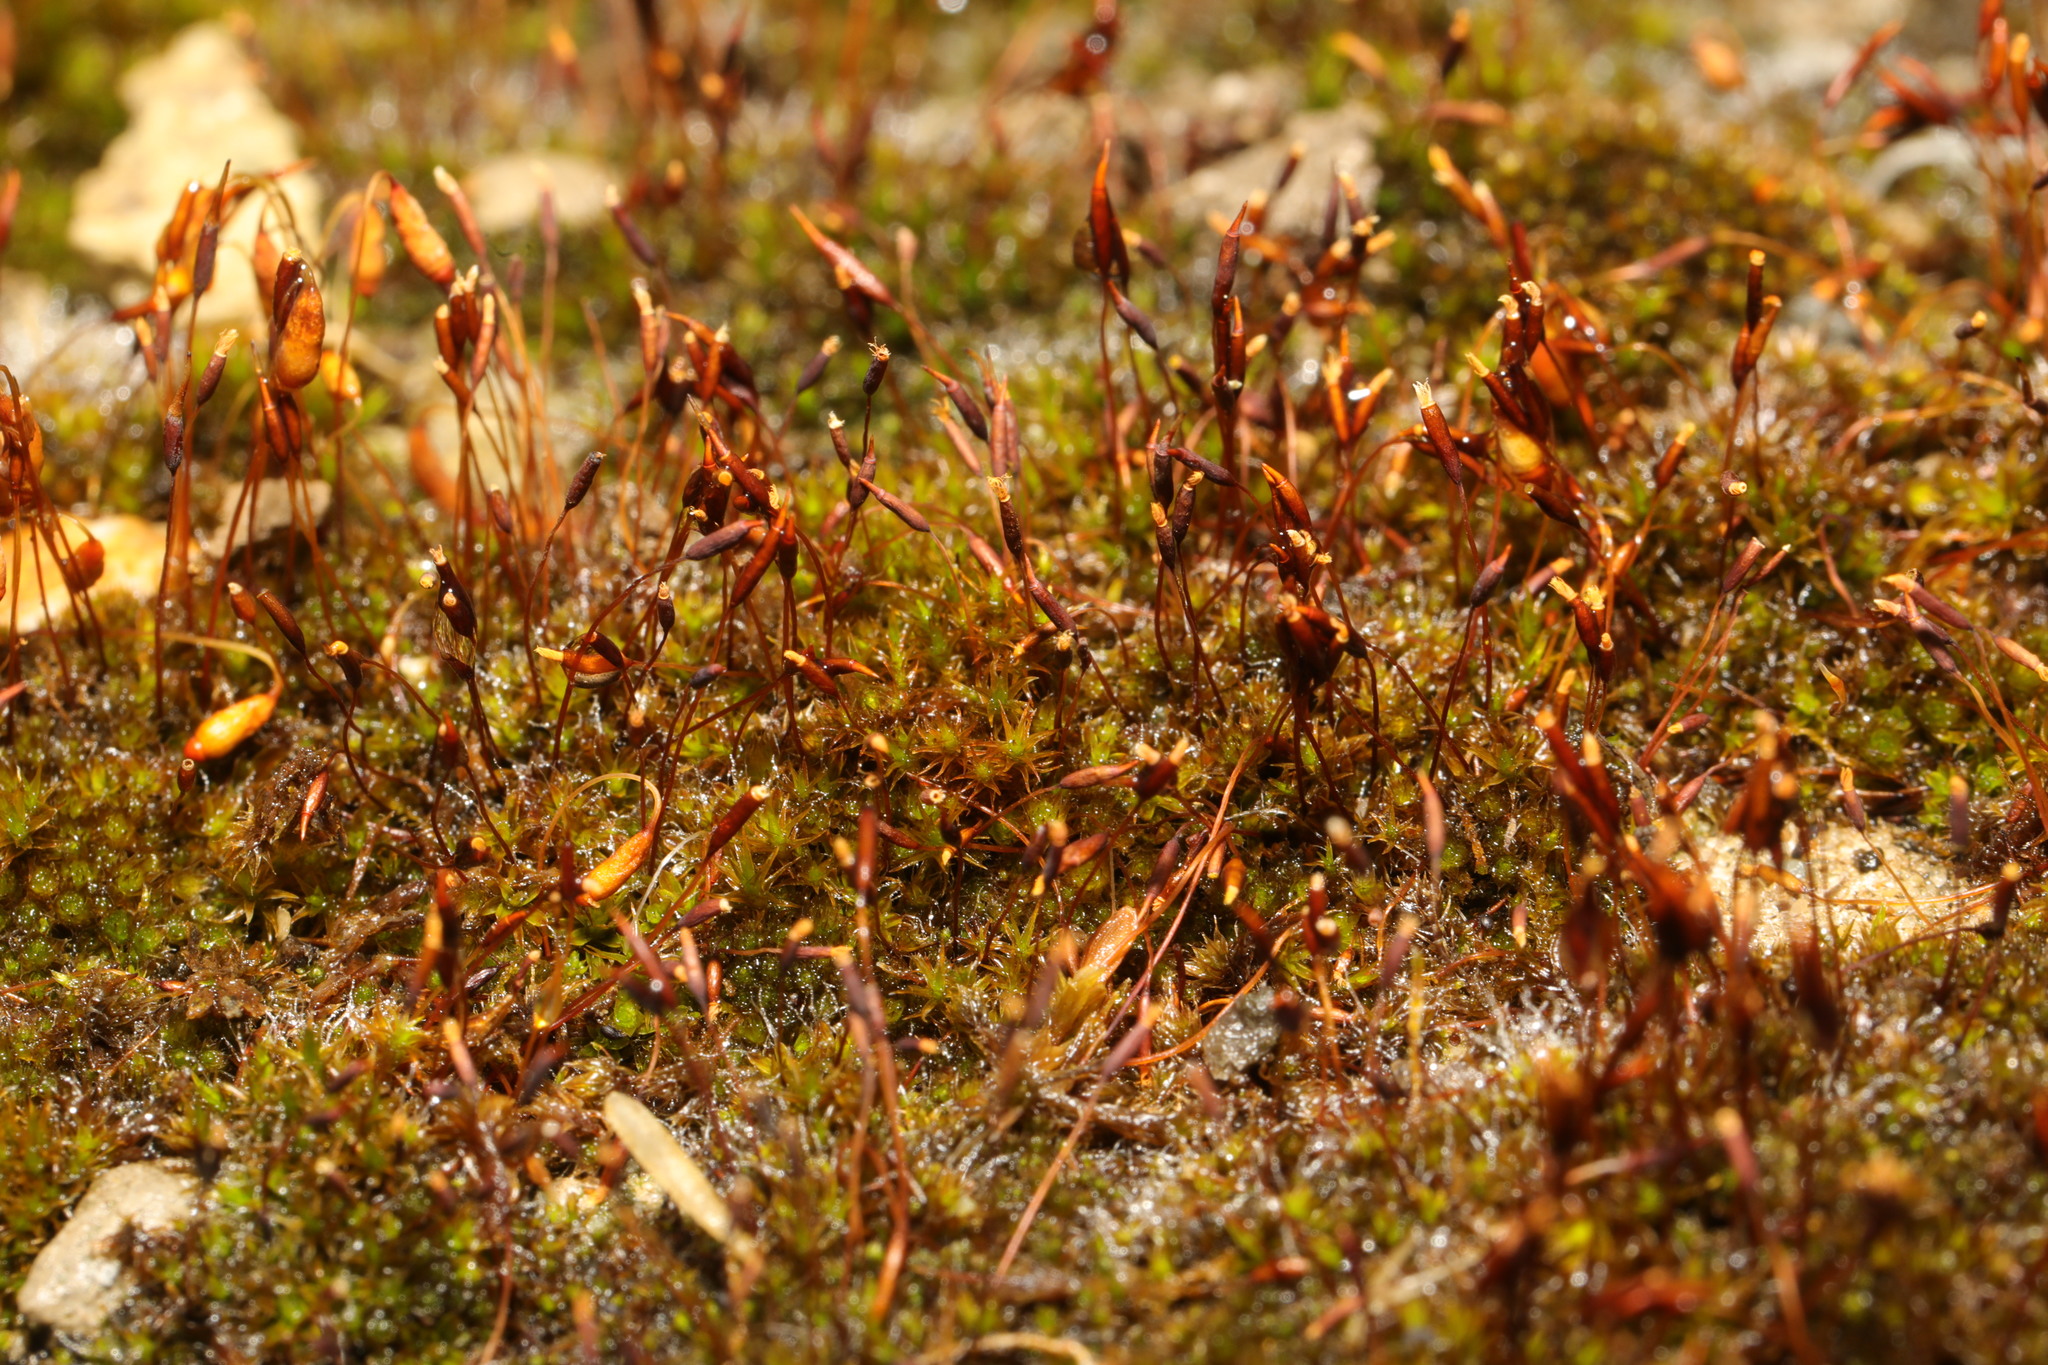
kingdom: Plantae
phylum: Bryophyta
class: Bryopsida
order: Pottiales
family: Pottiaceae
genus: Tortula
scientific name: Tortula muralis
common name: Wall screw-moss
